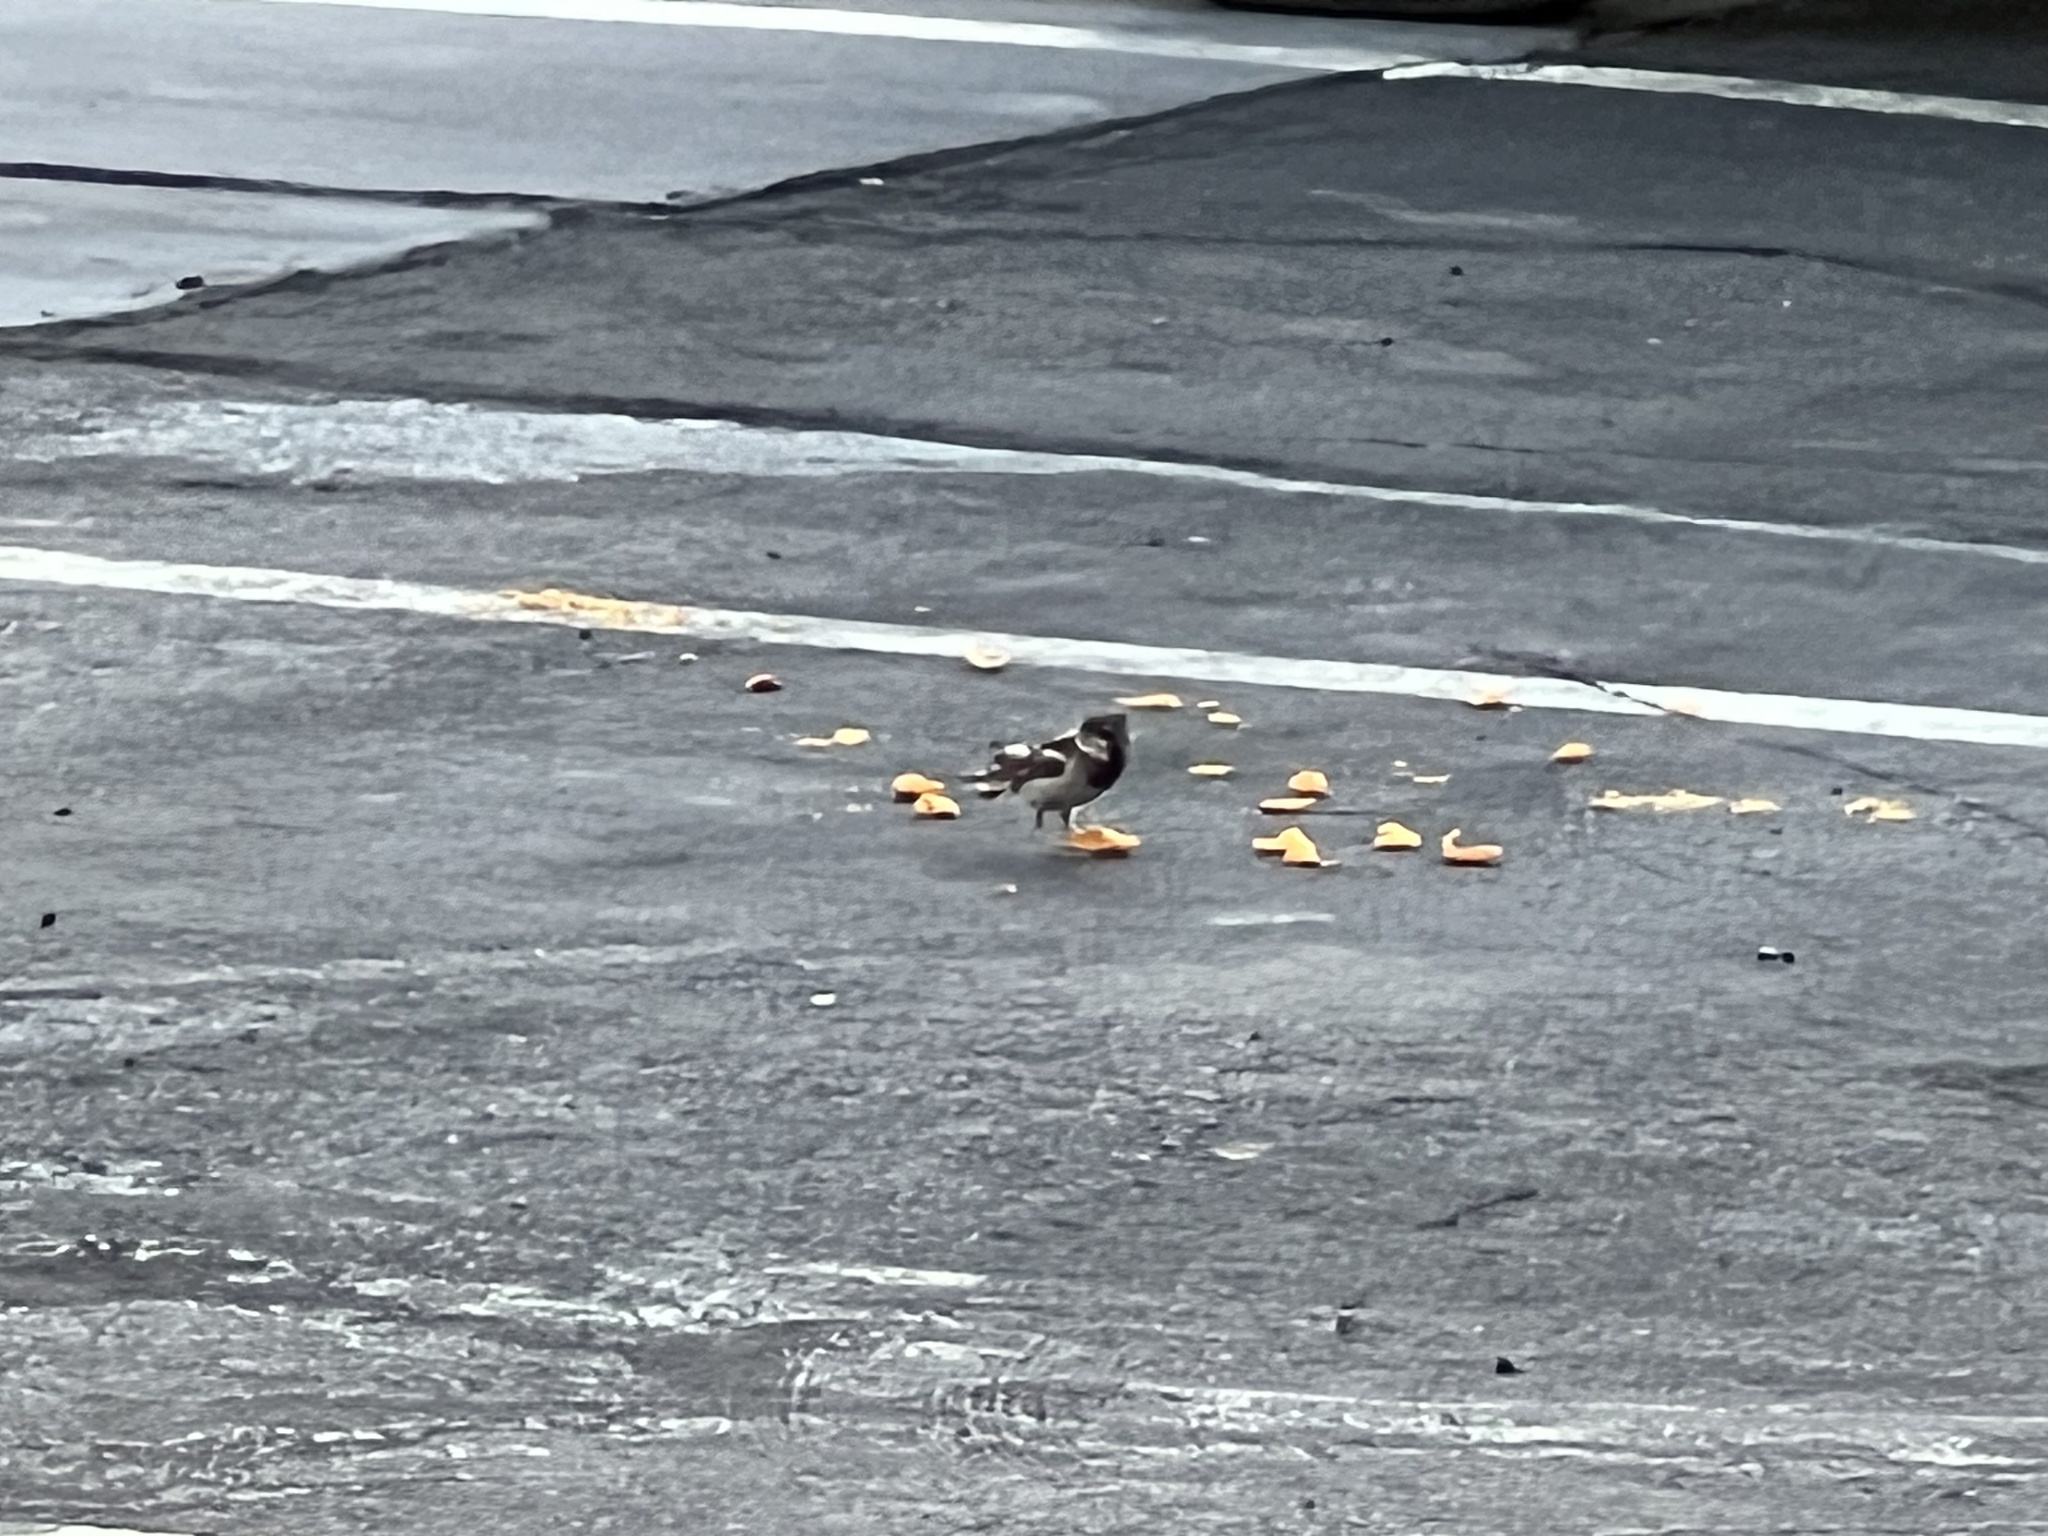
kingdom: Animalia
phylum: Chordata
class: Aves
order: Passeriformes
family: Passeridae
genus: Passer
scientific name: Passer domesticus
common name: House sparrow
